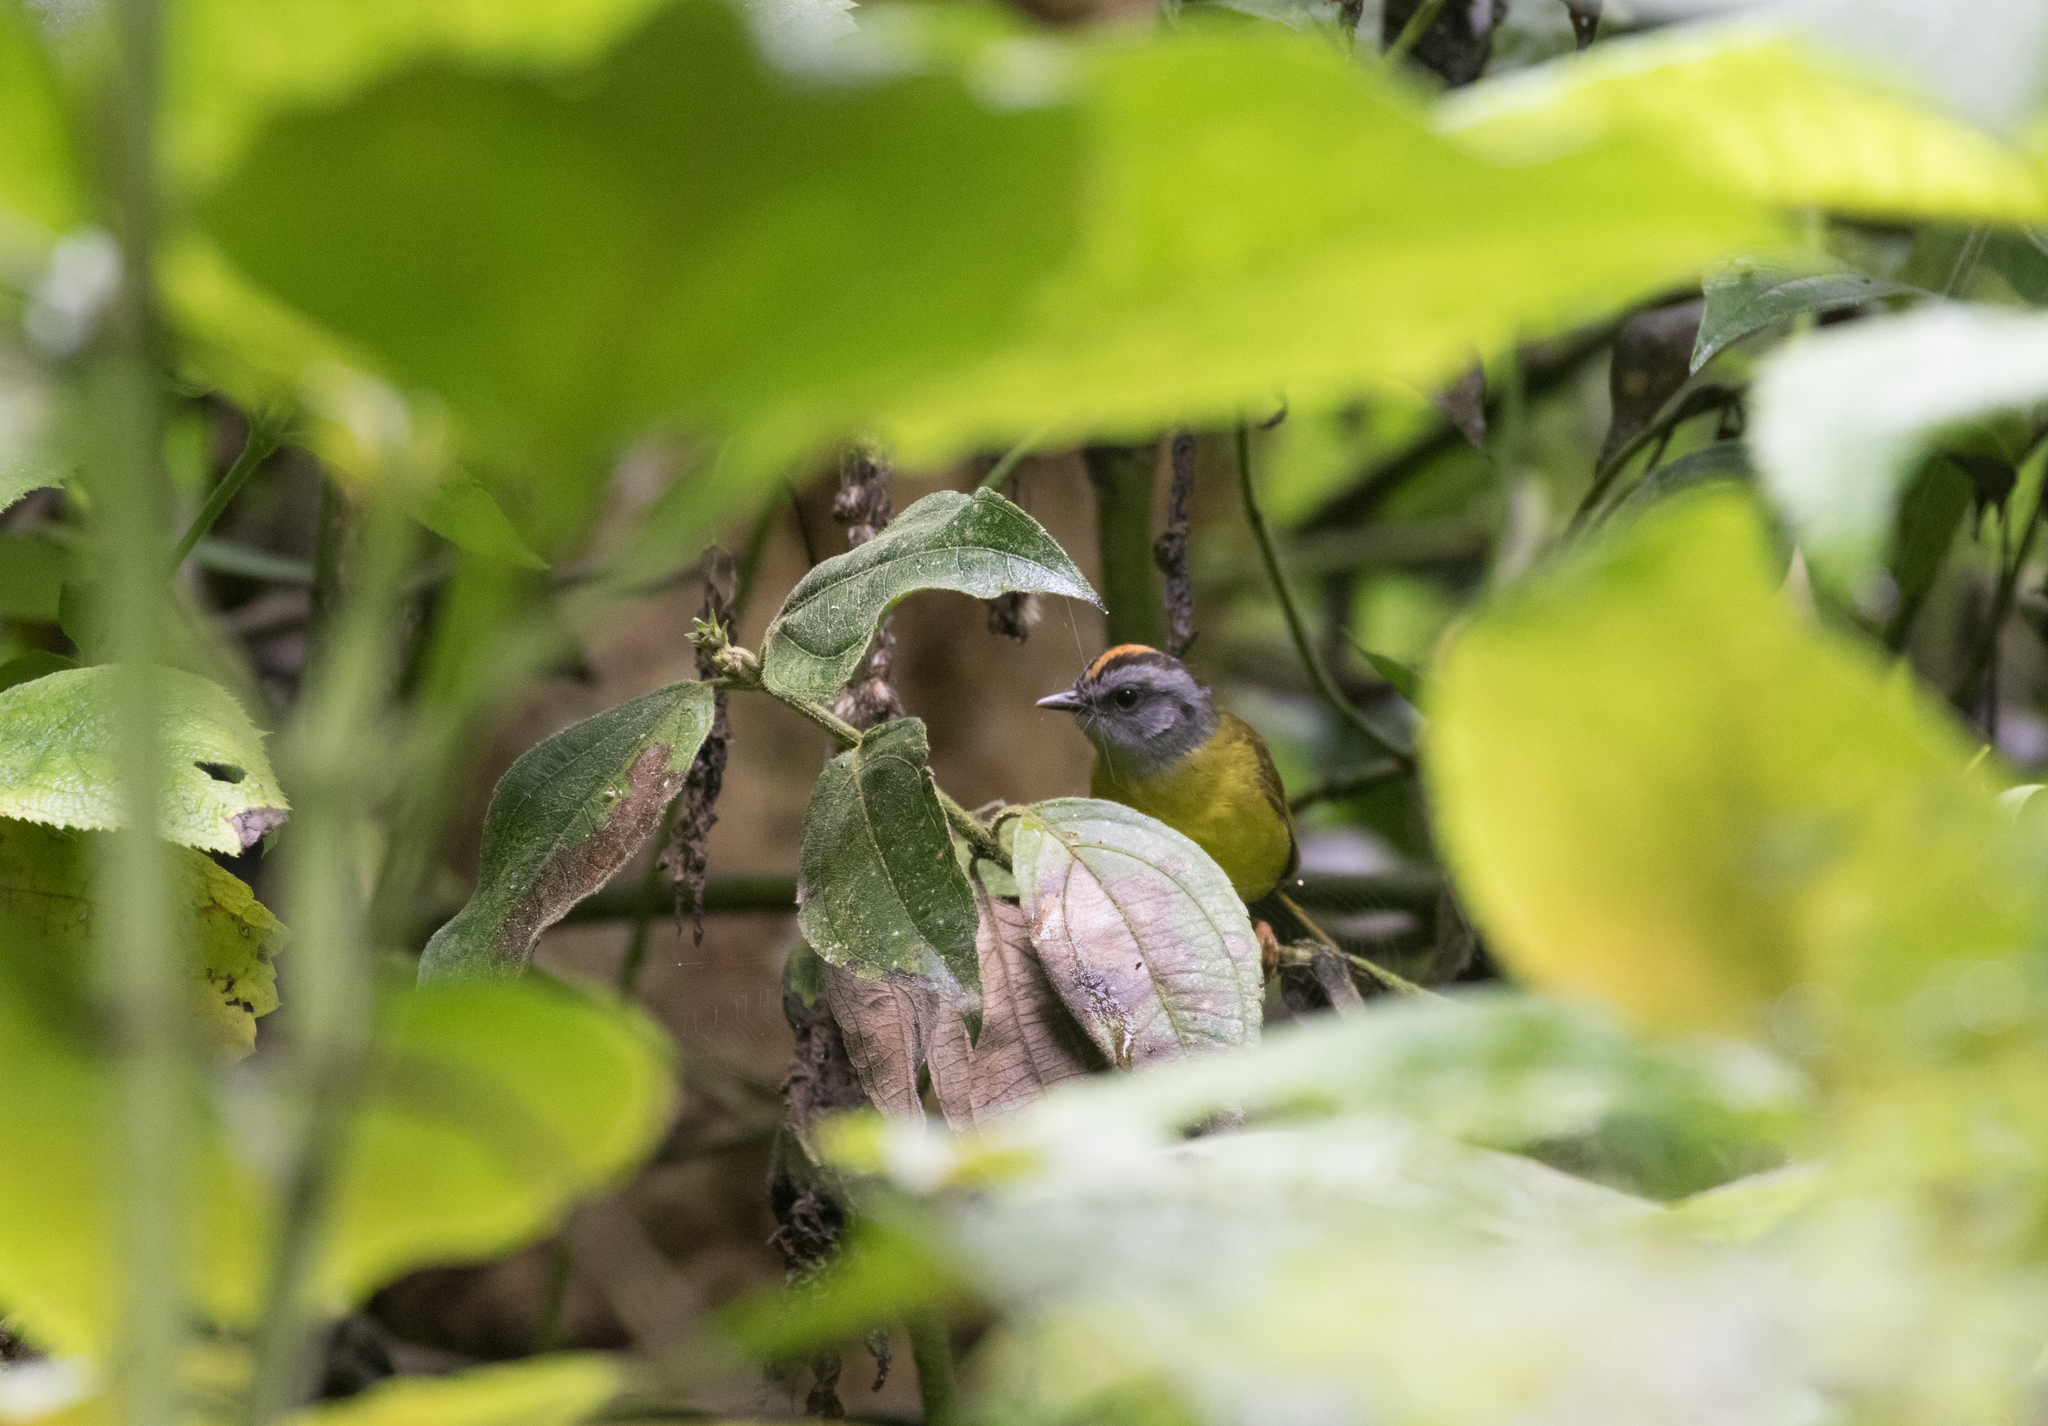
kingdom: Animalia
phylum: Chordata
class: Aves
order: Passeriformes
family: Parulidae
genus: Myiothlypis
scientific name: Myiothlypis coronata
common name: Russet-crowned warbler
